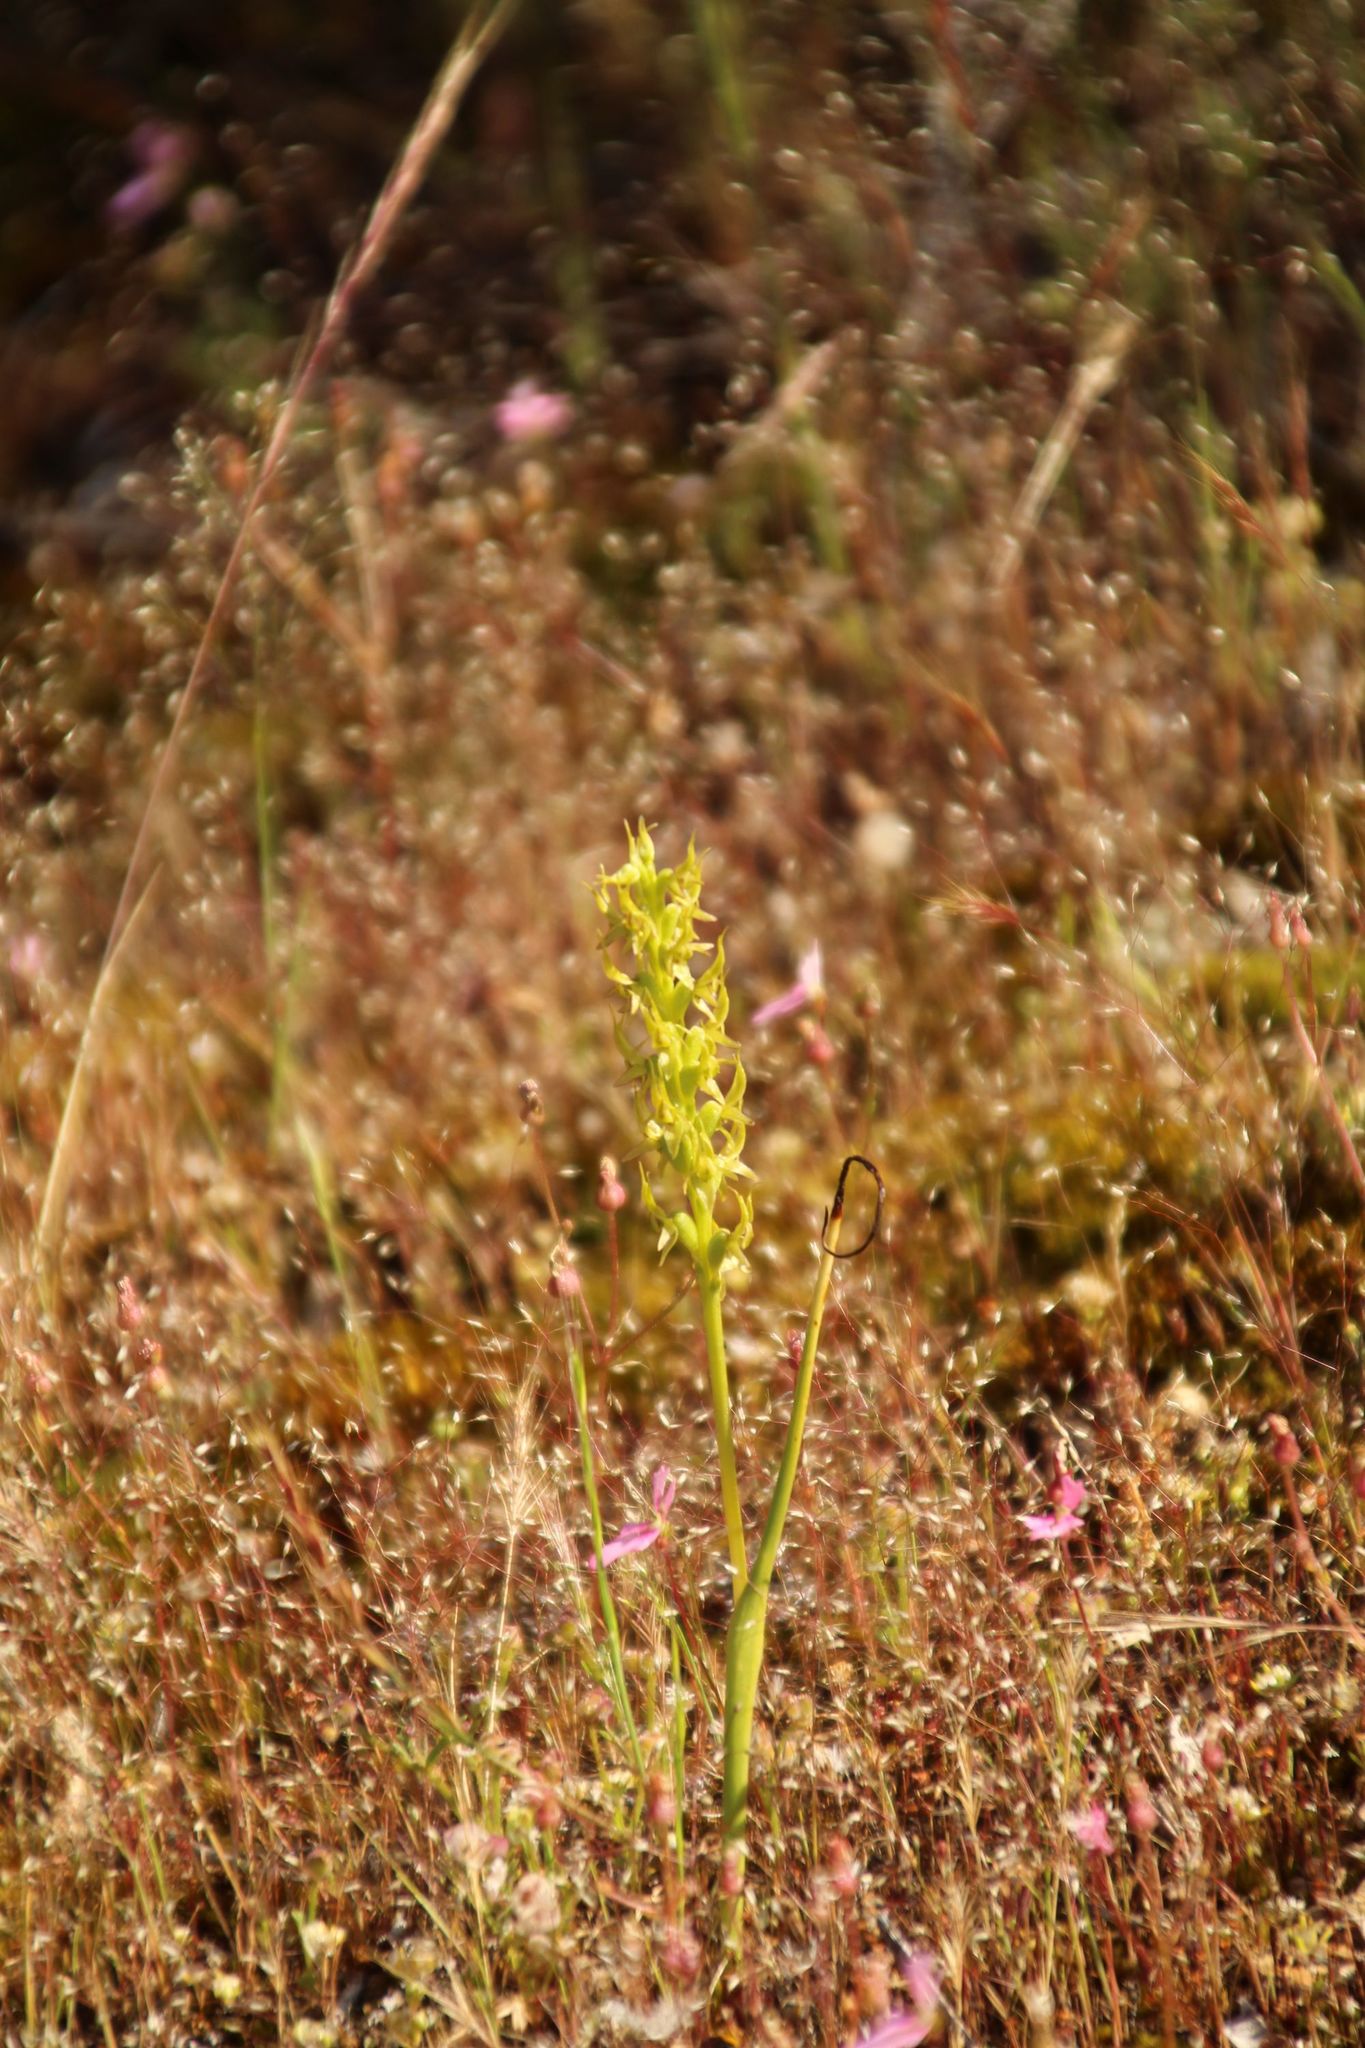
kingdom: Plantae
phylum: Tracheophyta
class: Liliopsida
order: Asparagales
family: Orchidaceae
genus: Prasophyllum
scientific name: Prasophyllum gracile
